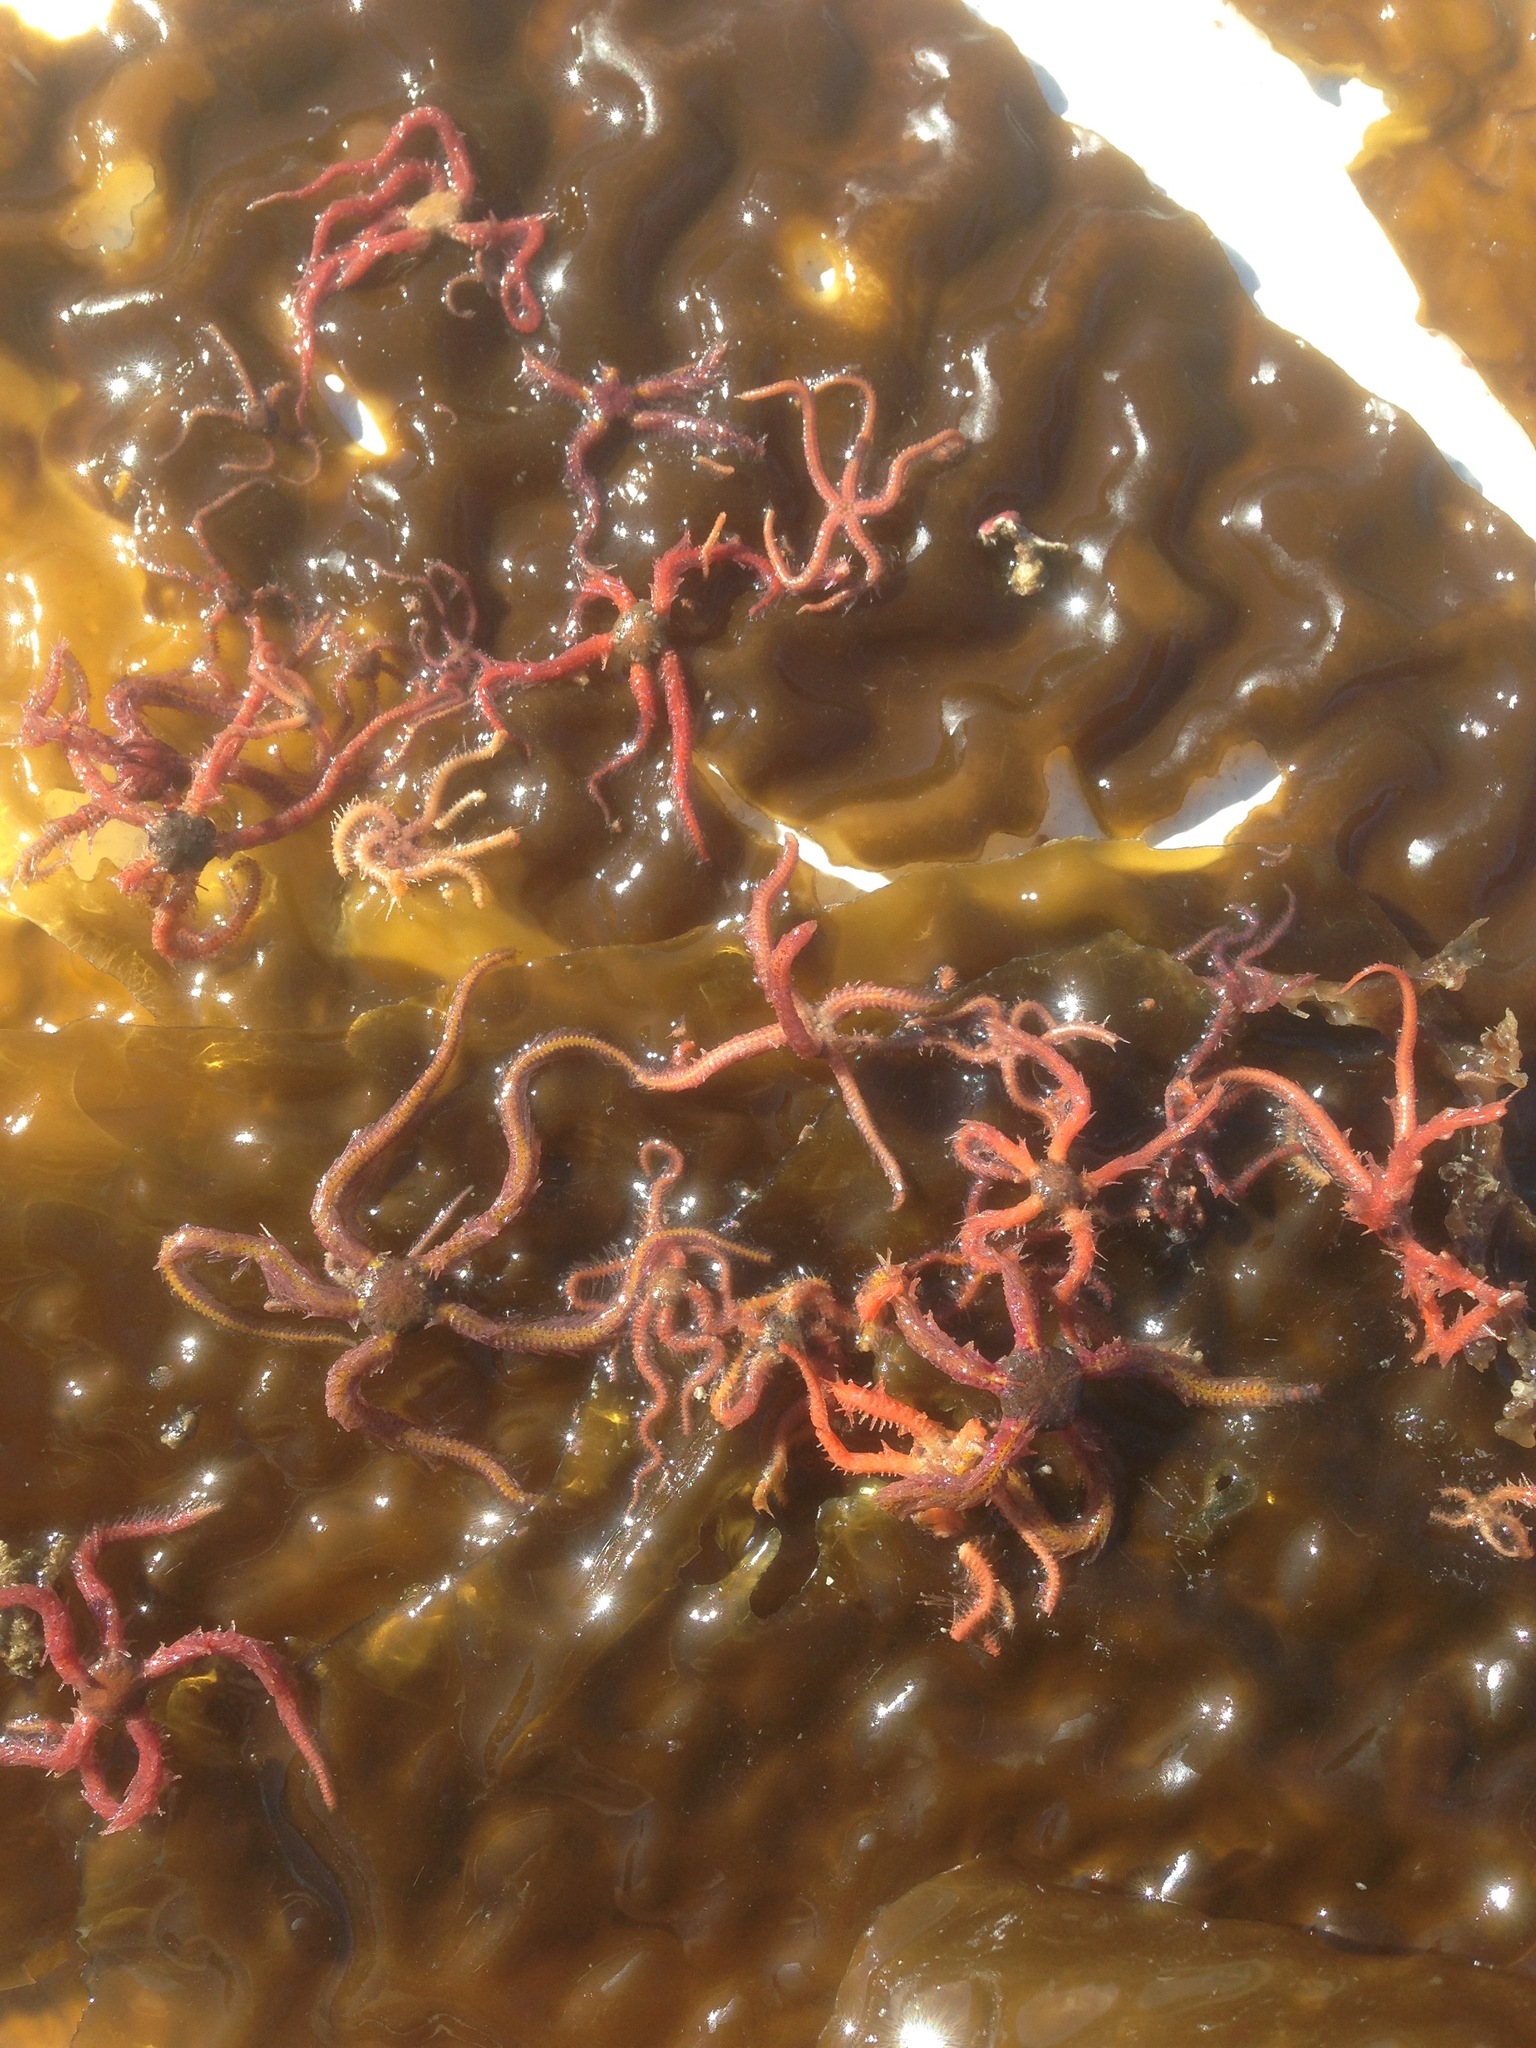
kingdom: Animalia
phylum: Echinodermata
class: Ophiuroidea
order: Amphilepidida
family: Ophiotrichidae
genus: Ophiothrix
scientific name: Ophiothrix spiculata
